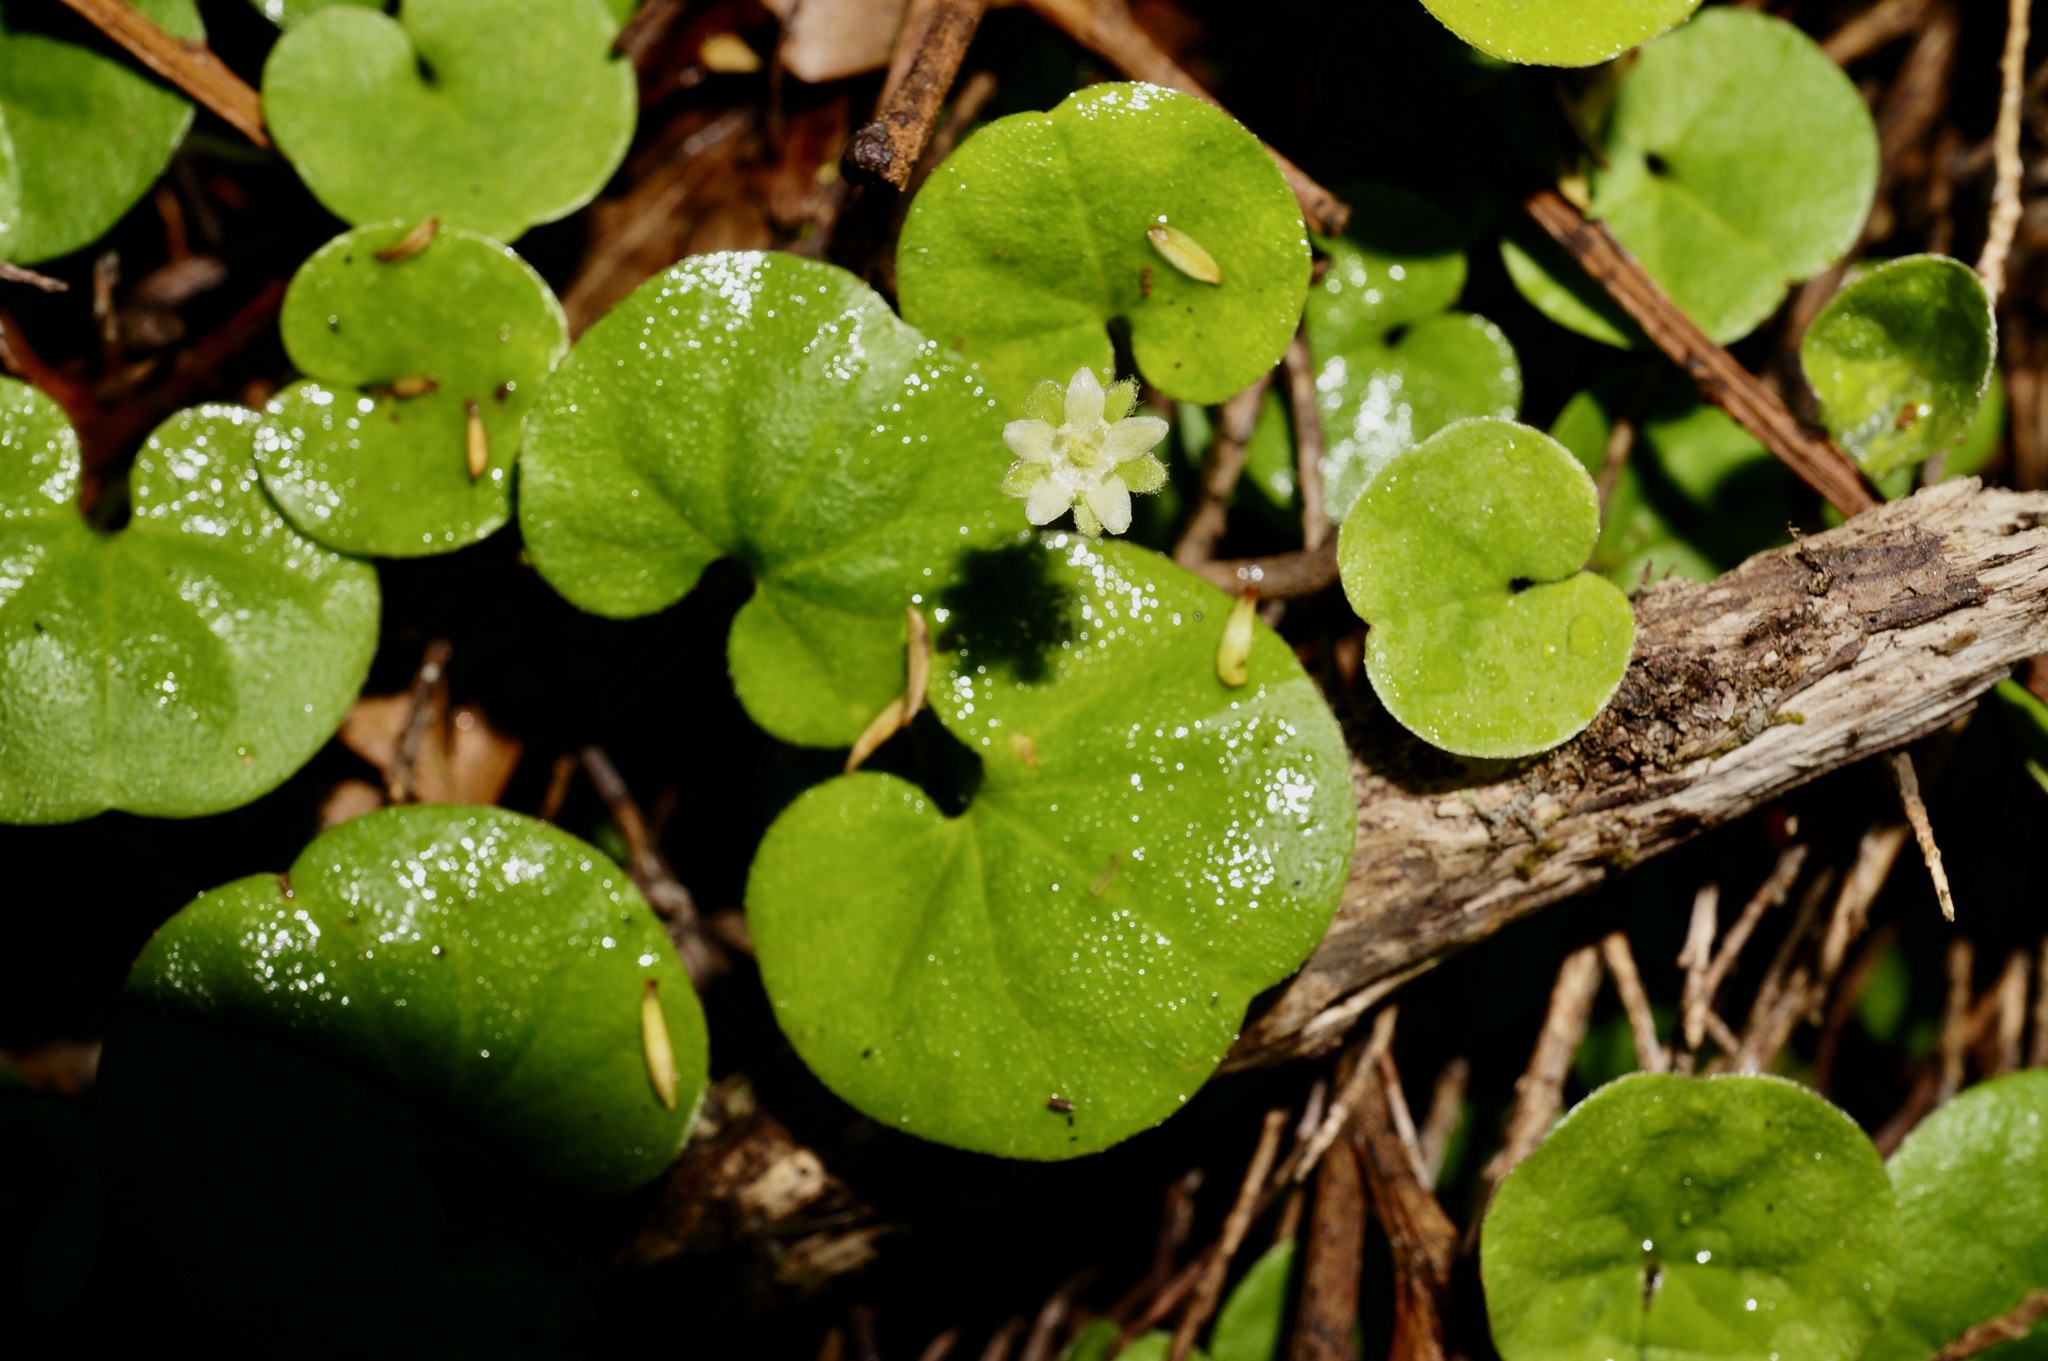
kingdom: Plantae
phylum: Tracheophyta
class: Magnoliopsida
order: Solanales
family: Convolvulaceae
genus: Dichondra
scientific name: Dichondra repens
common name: Kidneyweed
